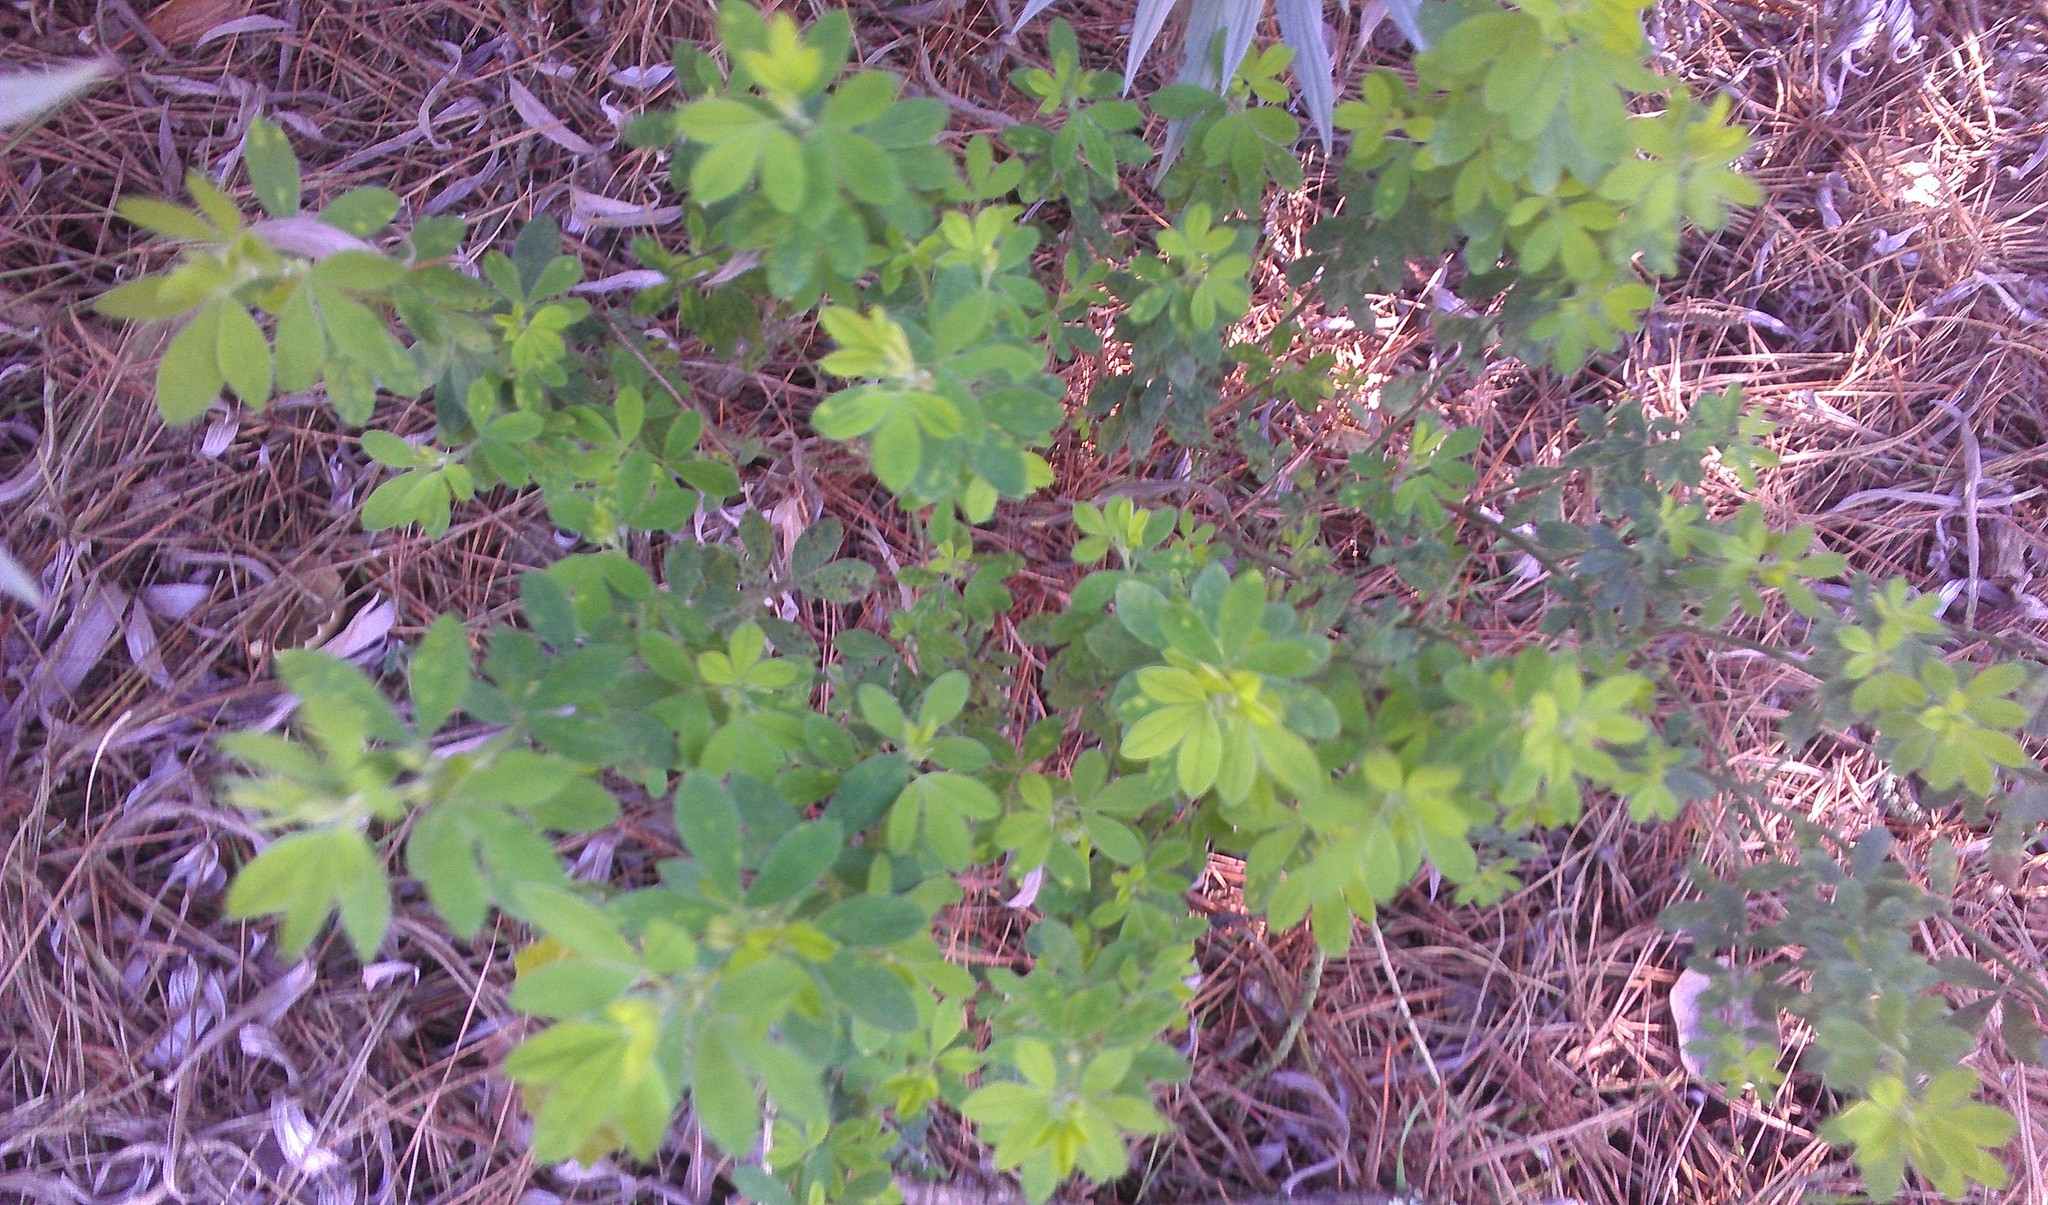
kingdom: Plantae
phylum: Tracheophyta
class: Magnoliopsida
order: Fabales
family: Fabaceae
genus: Genista
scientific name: Genista monspessulana
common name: Montpellier broom
